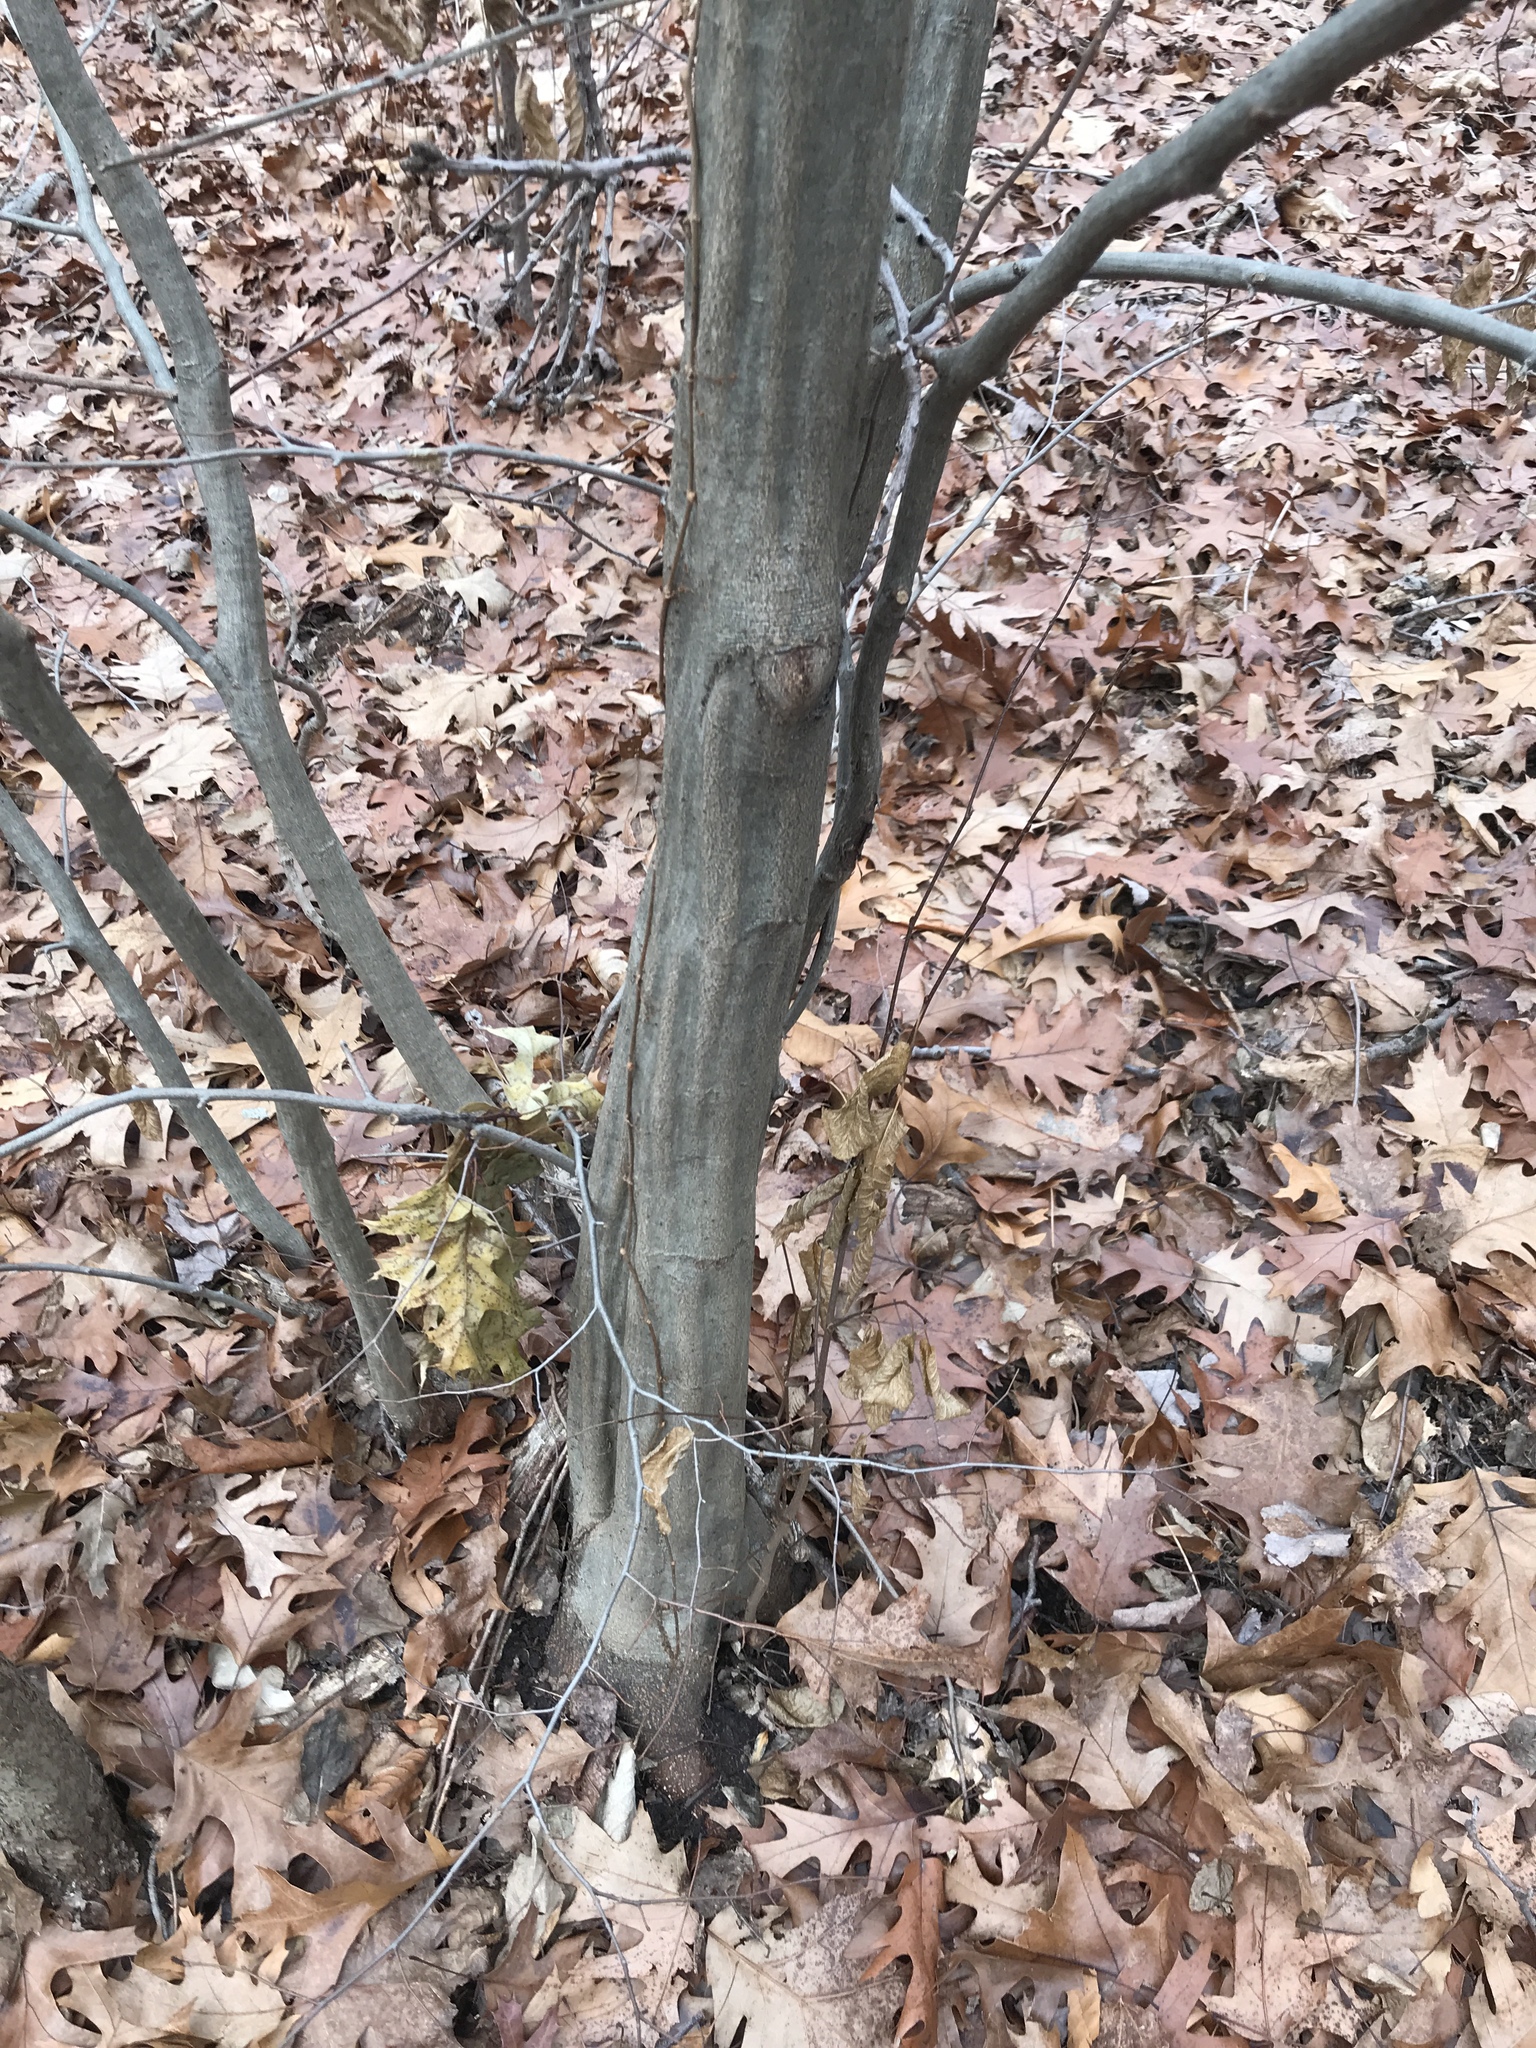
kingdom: Plantae
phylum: Tracheophyta
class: Magnoliopsida
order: Fagales
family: Betulaceae
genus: Carpinus
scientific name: Carpinus caroliniana
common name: American hornbeam
